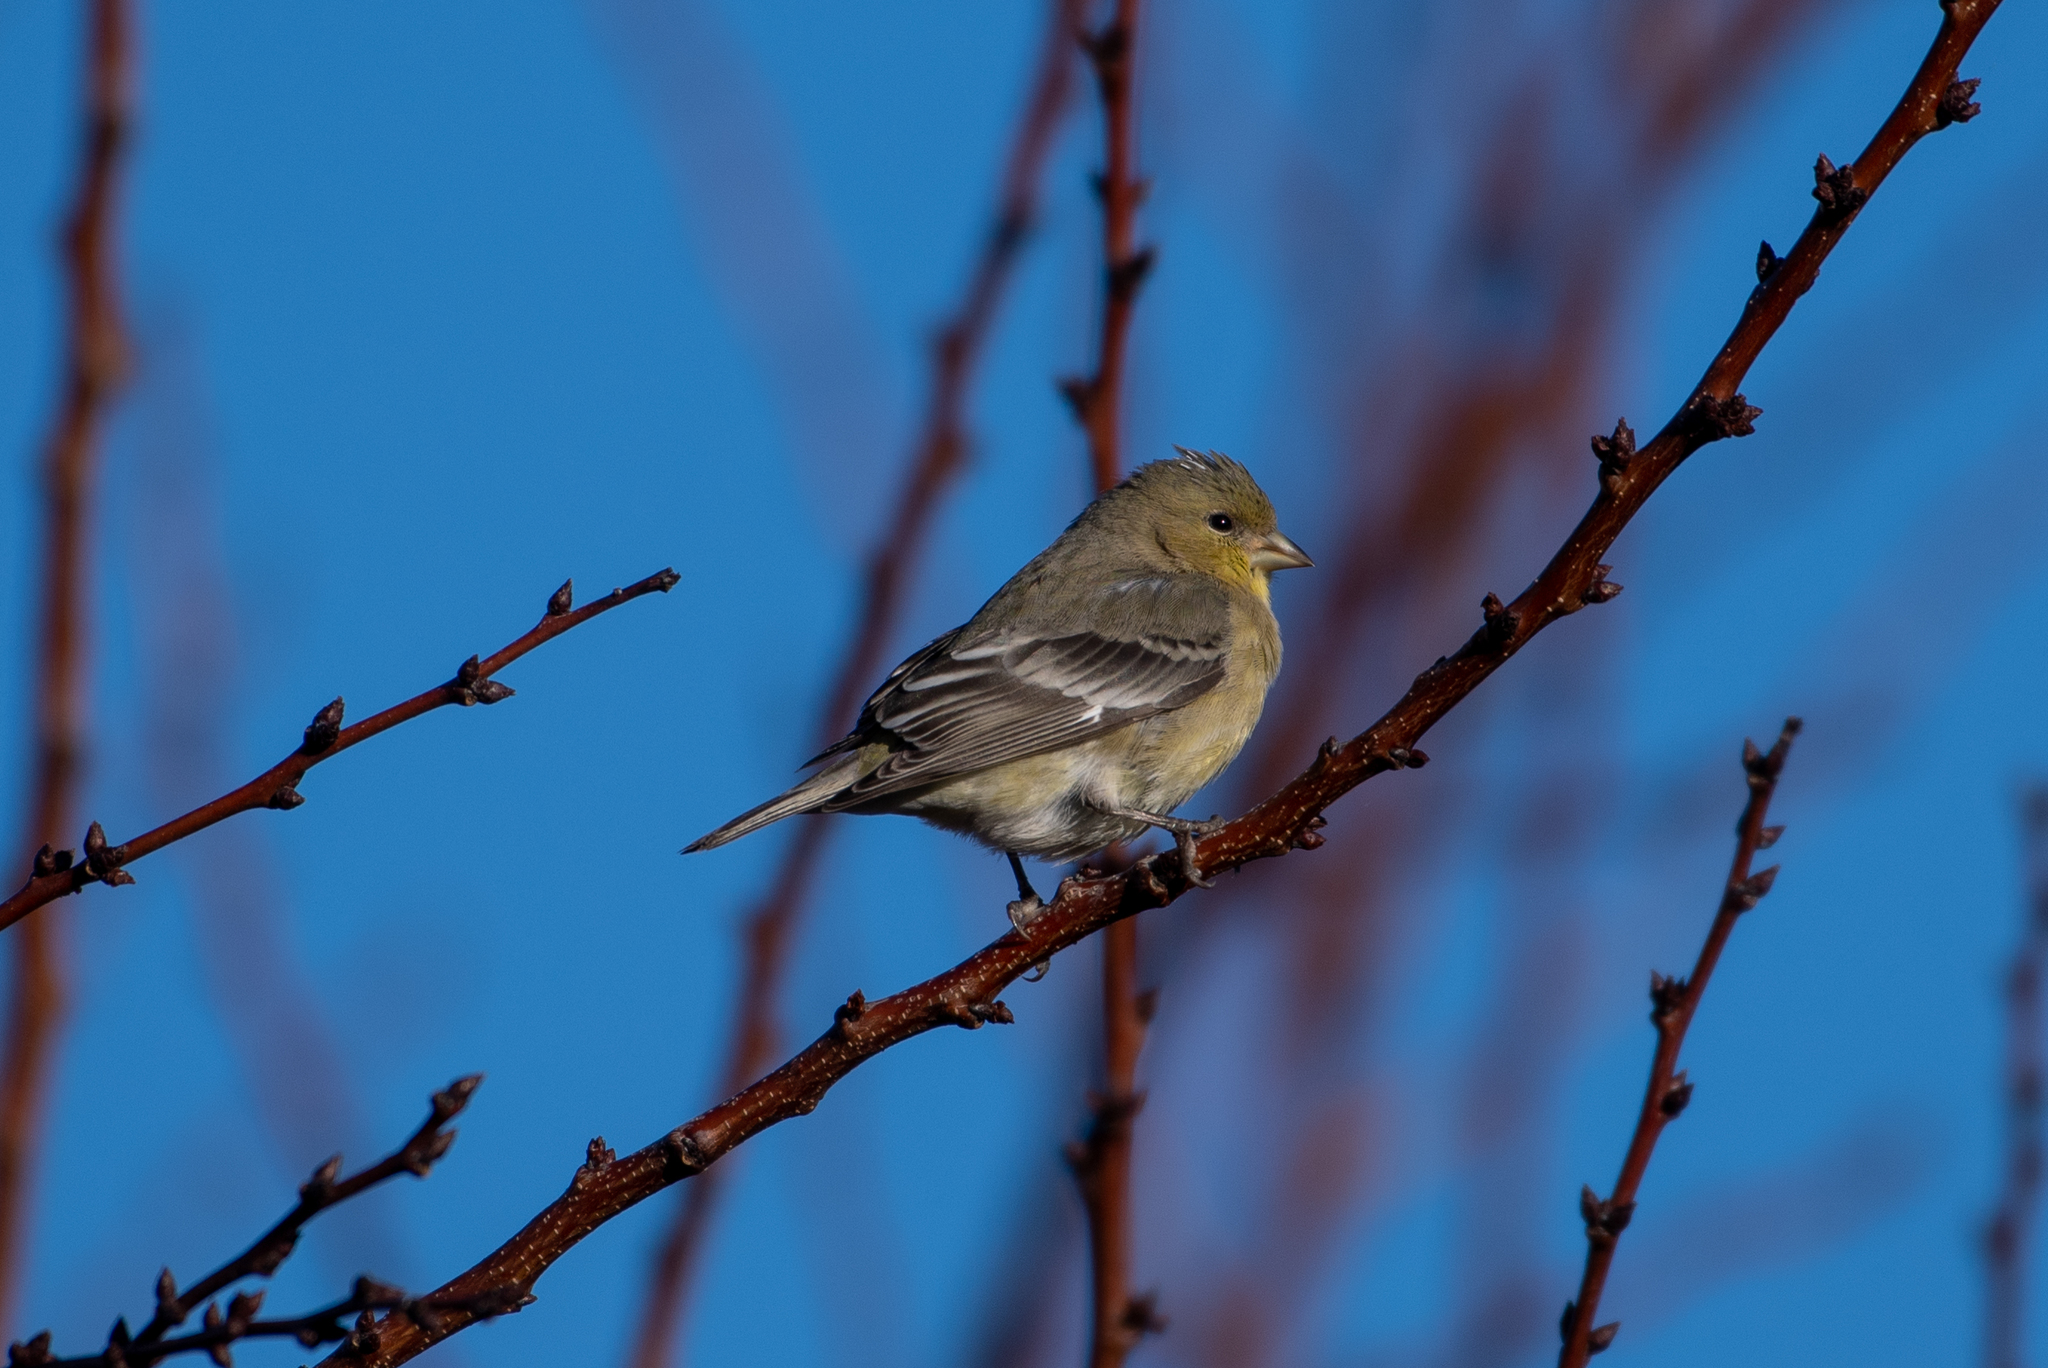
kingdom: Animalia
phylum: Chordata
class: Aves
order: Passeriformes
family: Fringillidae
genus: Spinus
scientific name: Spinus psaltria
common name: Lesser goldfinch
